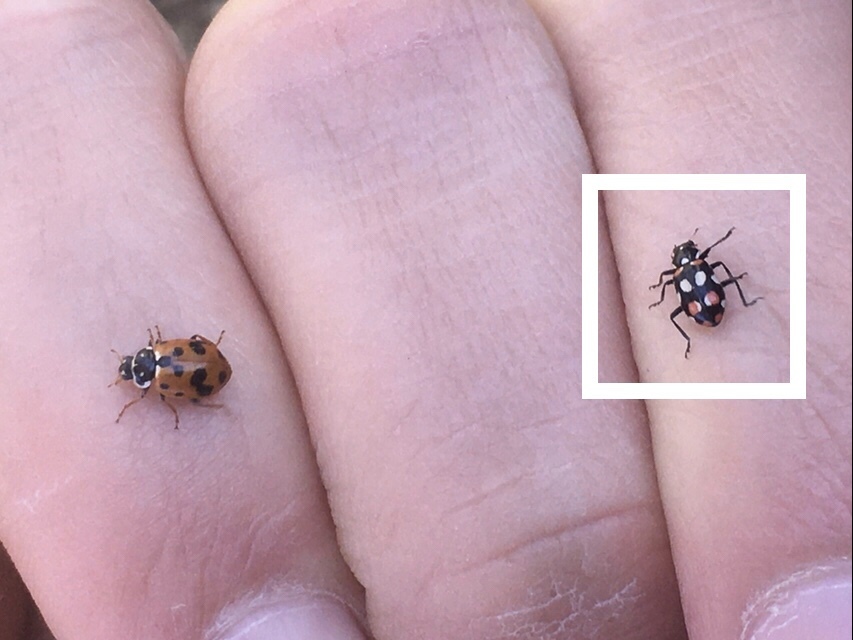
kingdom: Animalia
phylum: Arthropoda
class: Insecta
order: Coleoptera
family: Coccinellidae
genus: Eriopis
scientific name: Eriopis connexa
